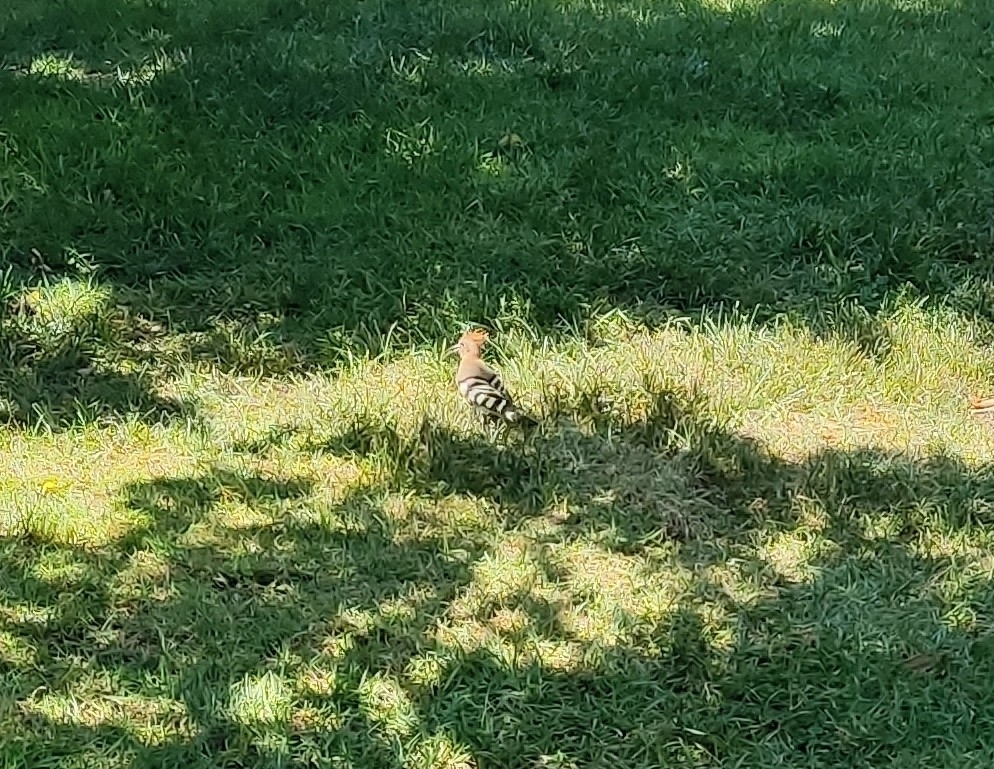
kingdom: Animalia
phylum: Chordata
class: Aves
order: Bucerotiformes
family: Upupidae
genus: Upupa
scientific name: Upupa epops
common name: Eurasian hoopoe
